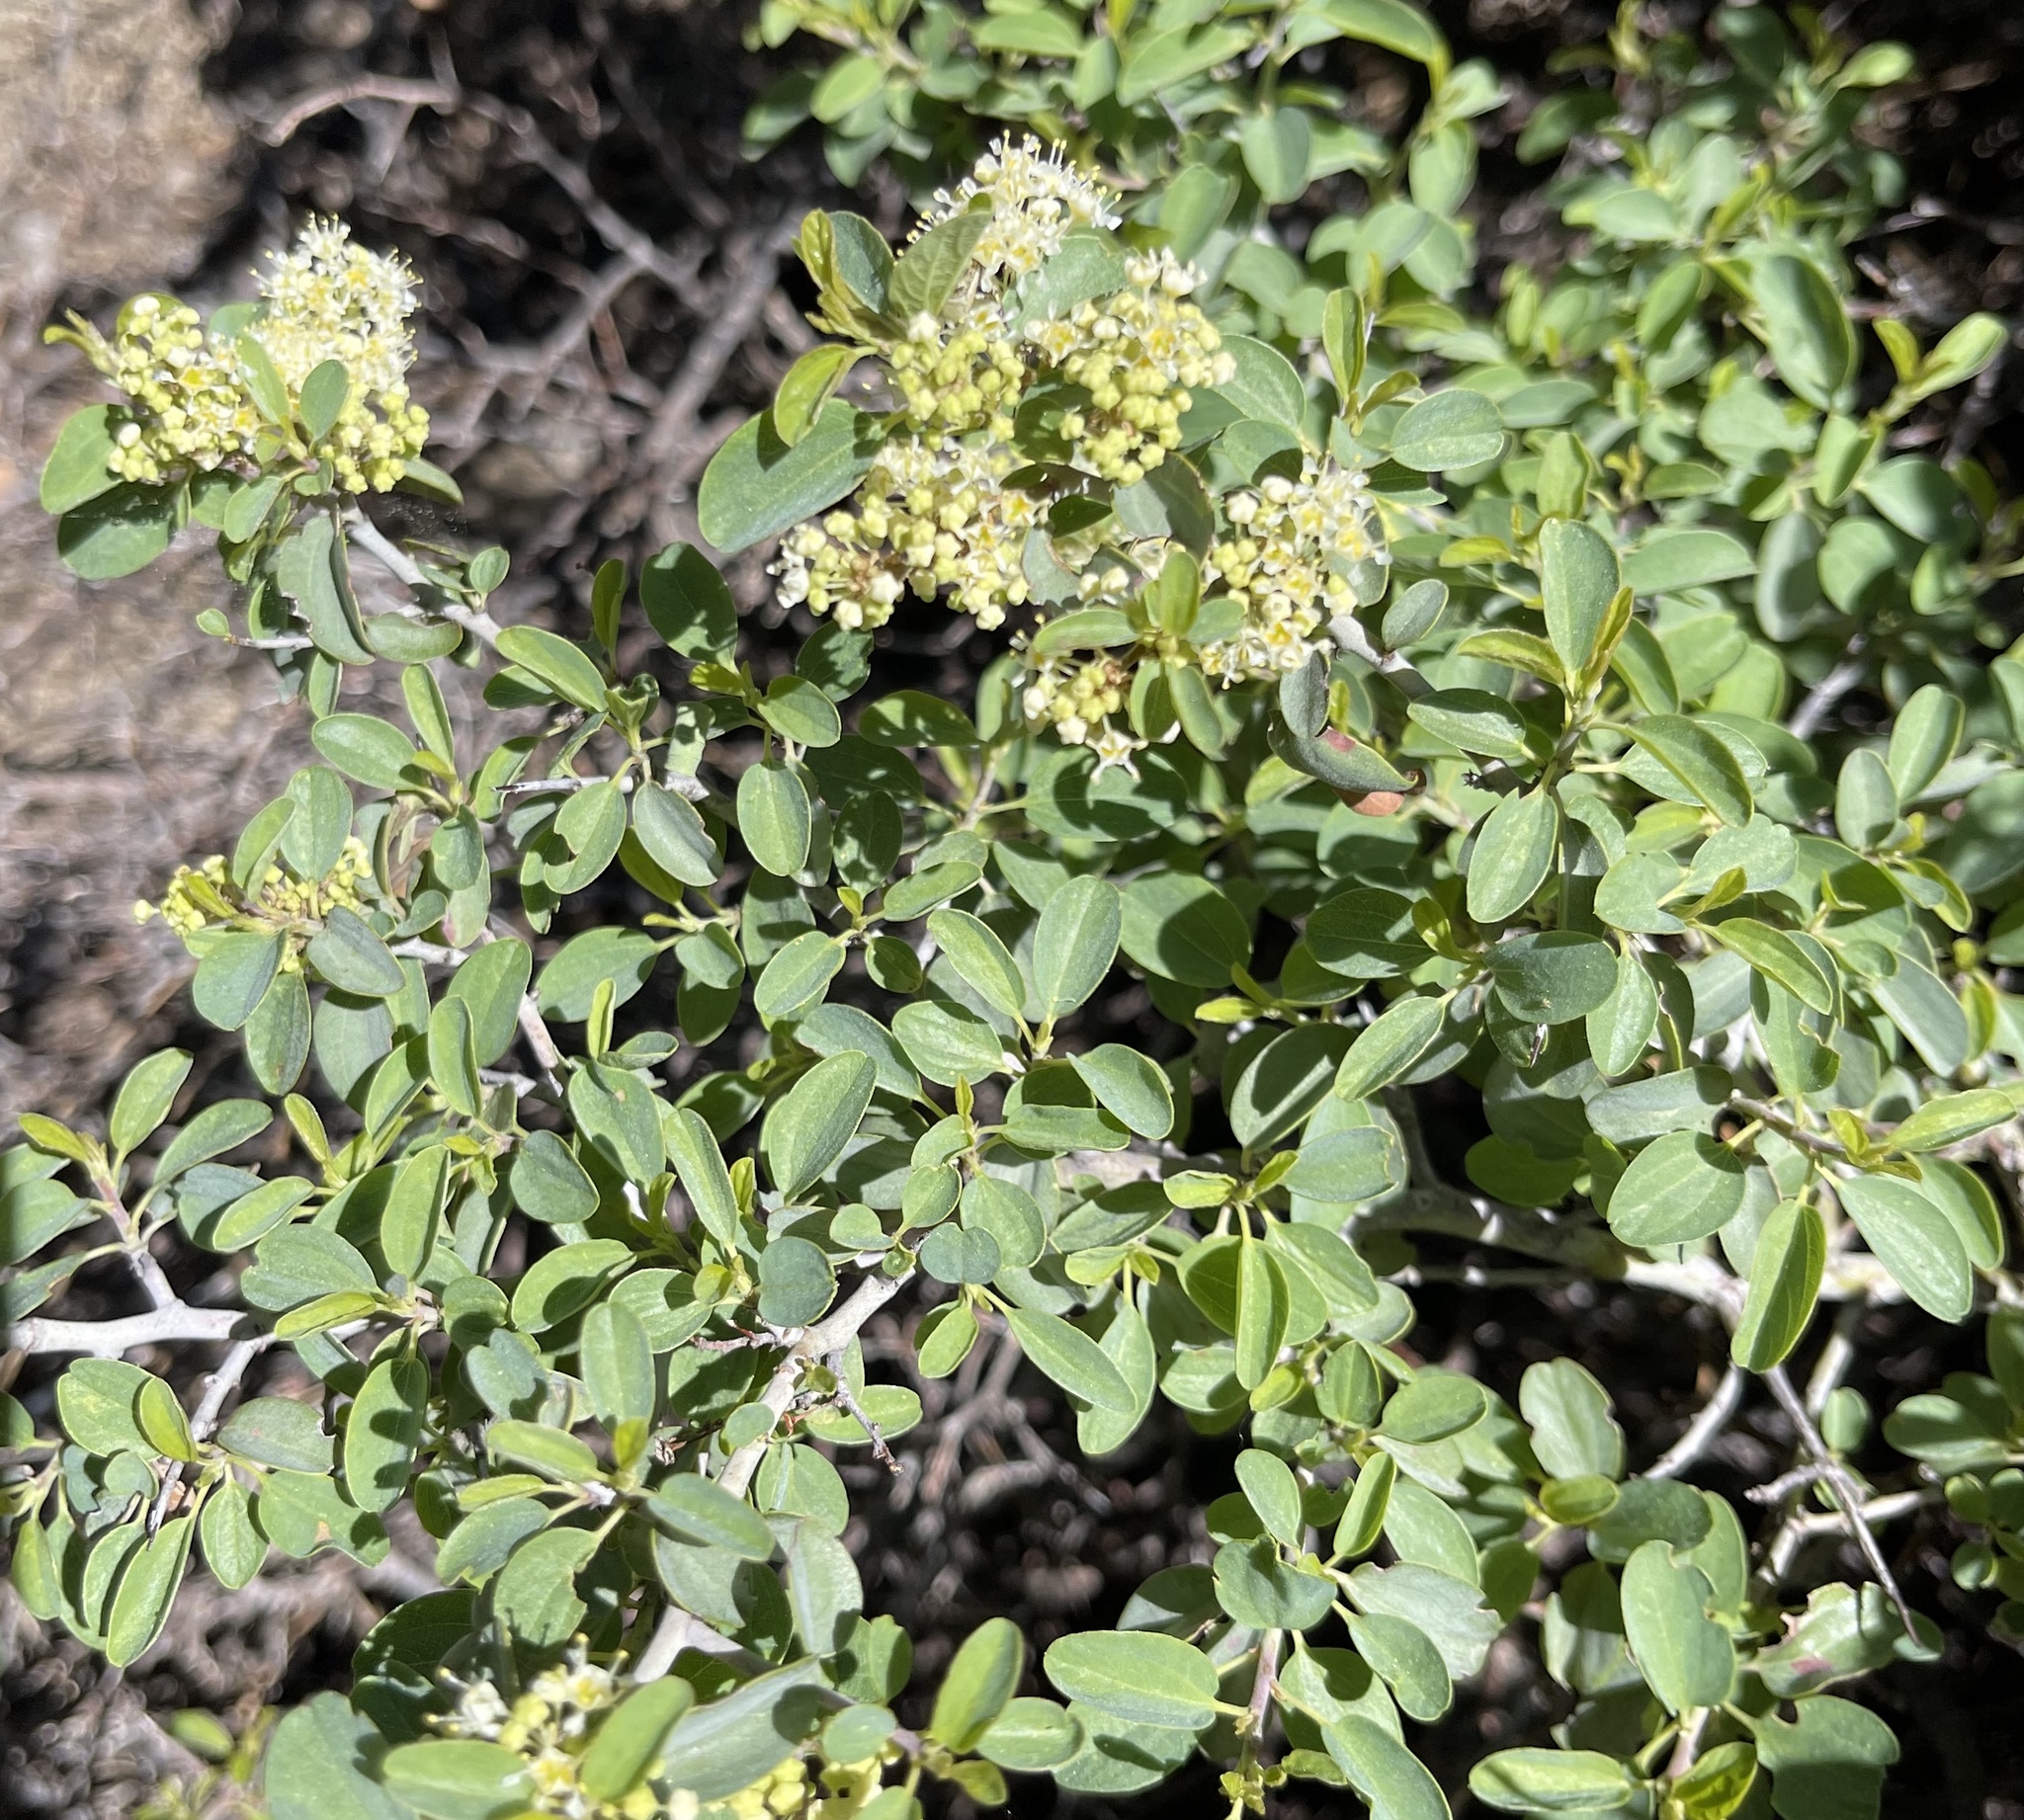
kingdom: Plantae
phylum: Tracheophyta
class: Magnoliopsida
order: Rosales
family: Rhamnaceae
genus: Ceanothus
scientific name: Ceanothus cordulatus
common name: Mountain whitethorn
